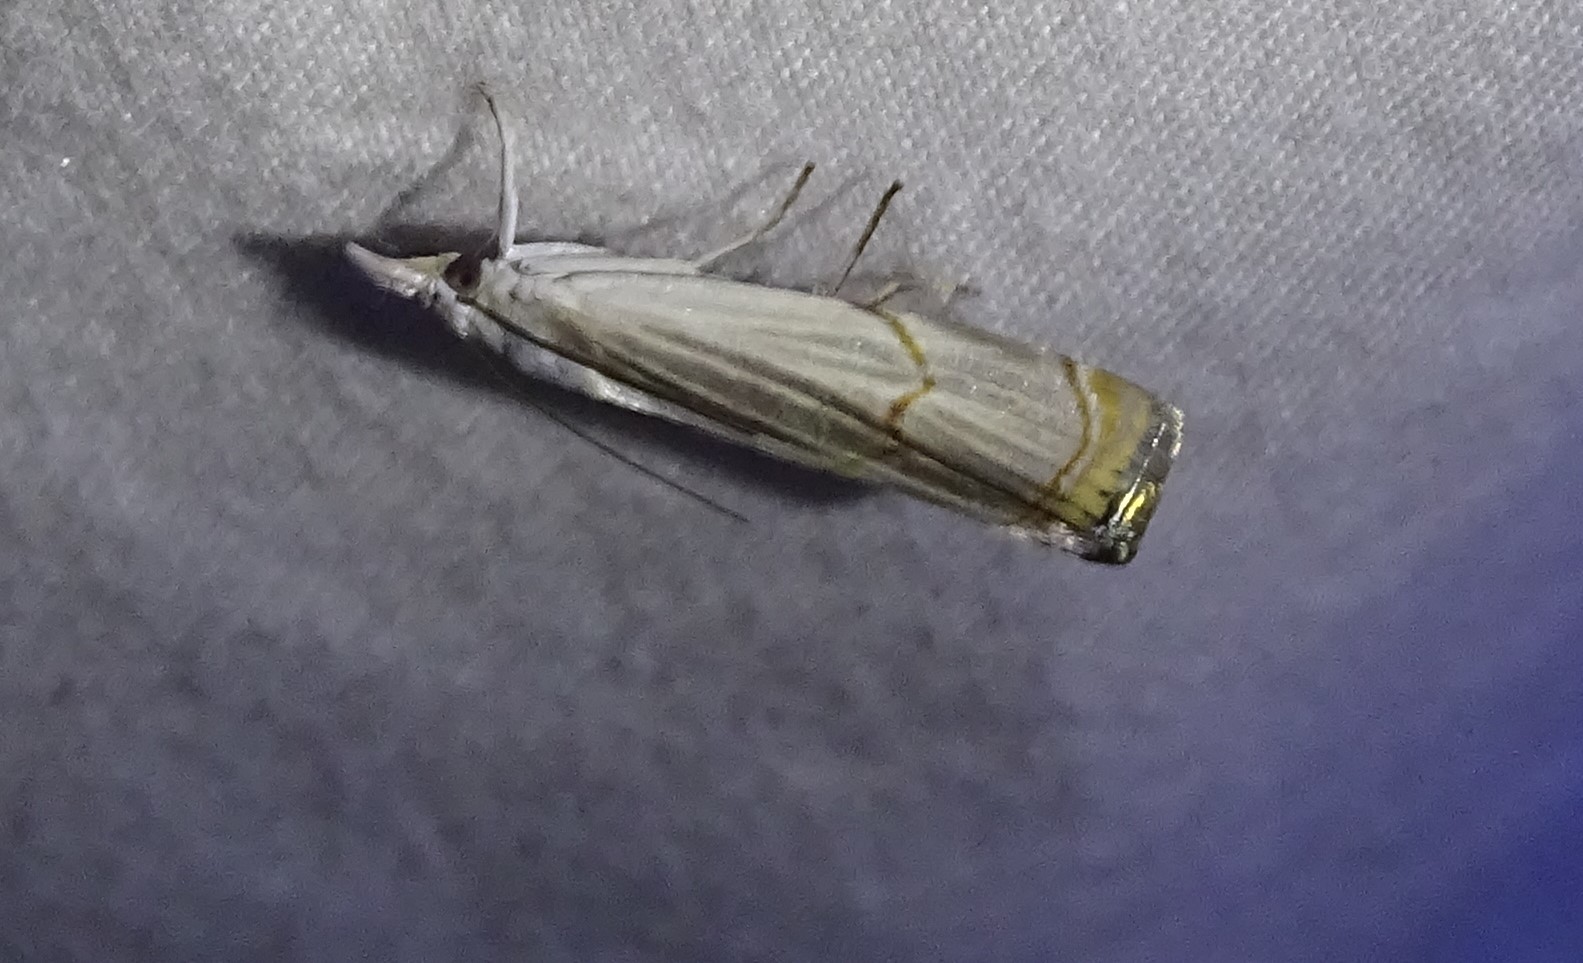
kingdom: Animalia
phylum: Arthropoda
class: Insecta
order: Lepidoptera
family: Crambidae
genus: Parapediasia
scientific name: Parapediasia decorellus
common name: Graceful grass-veneer
